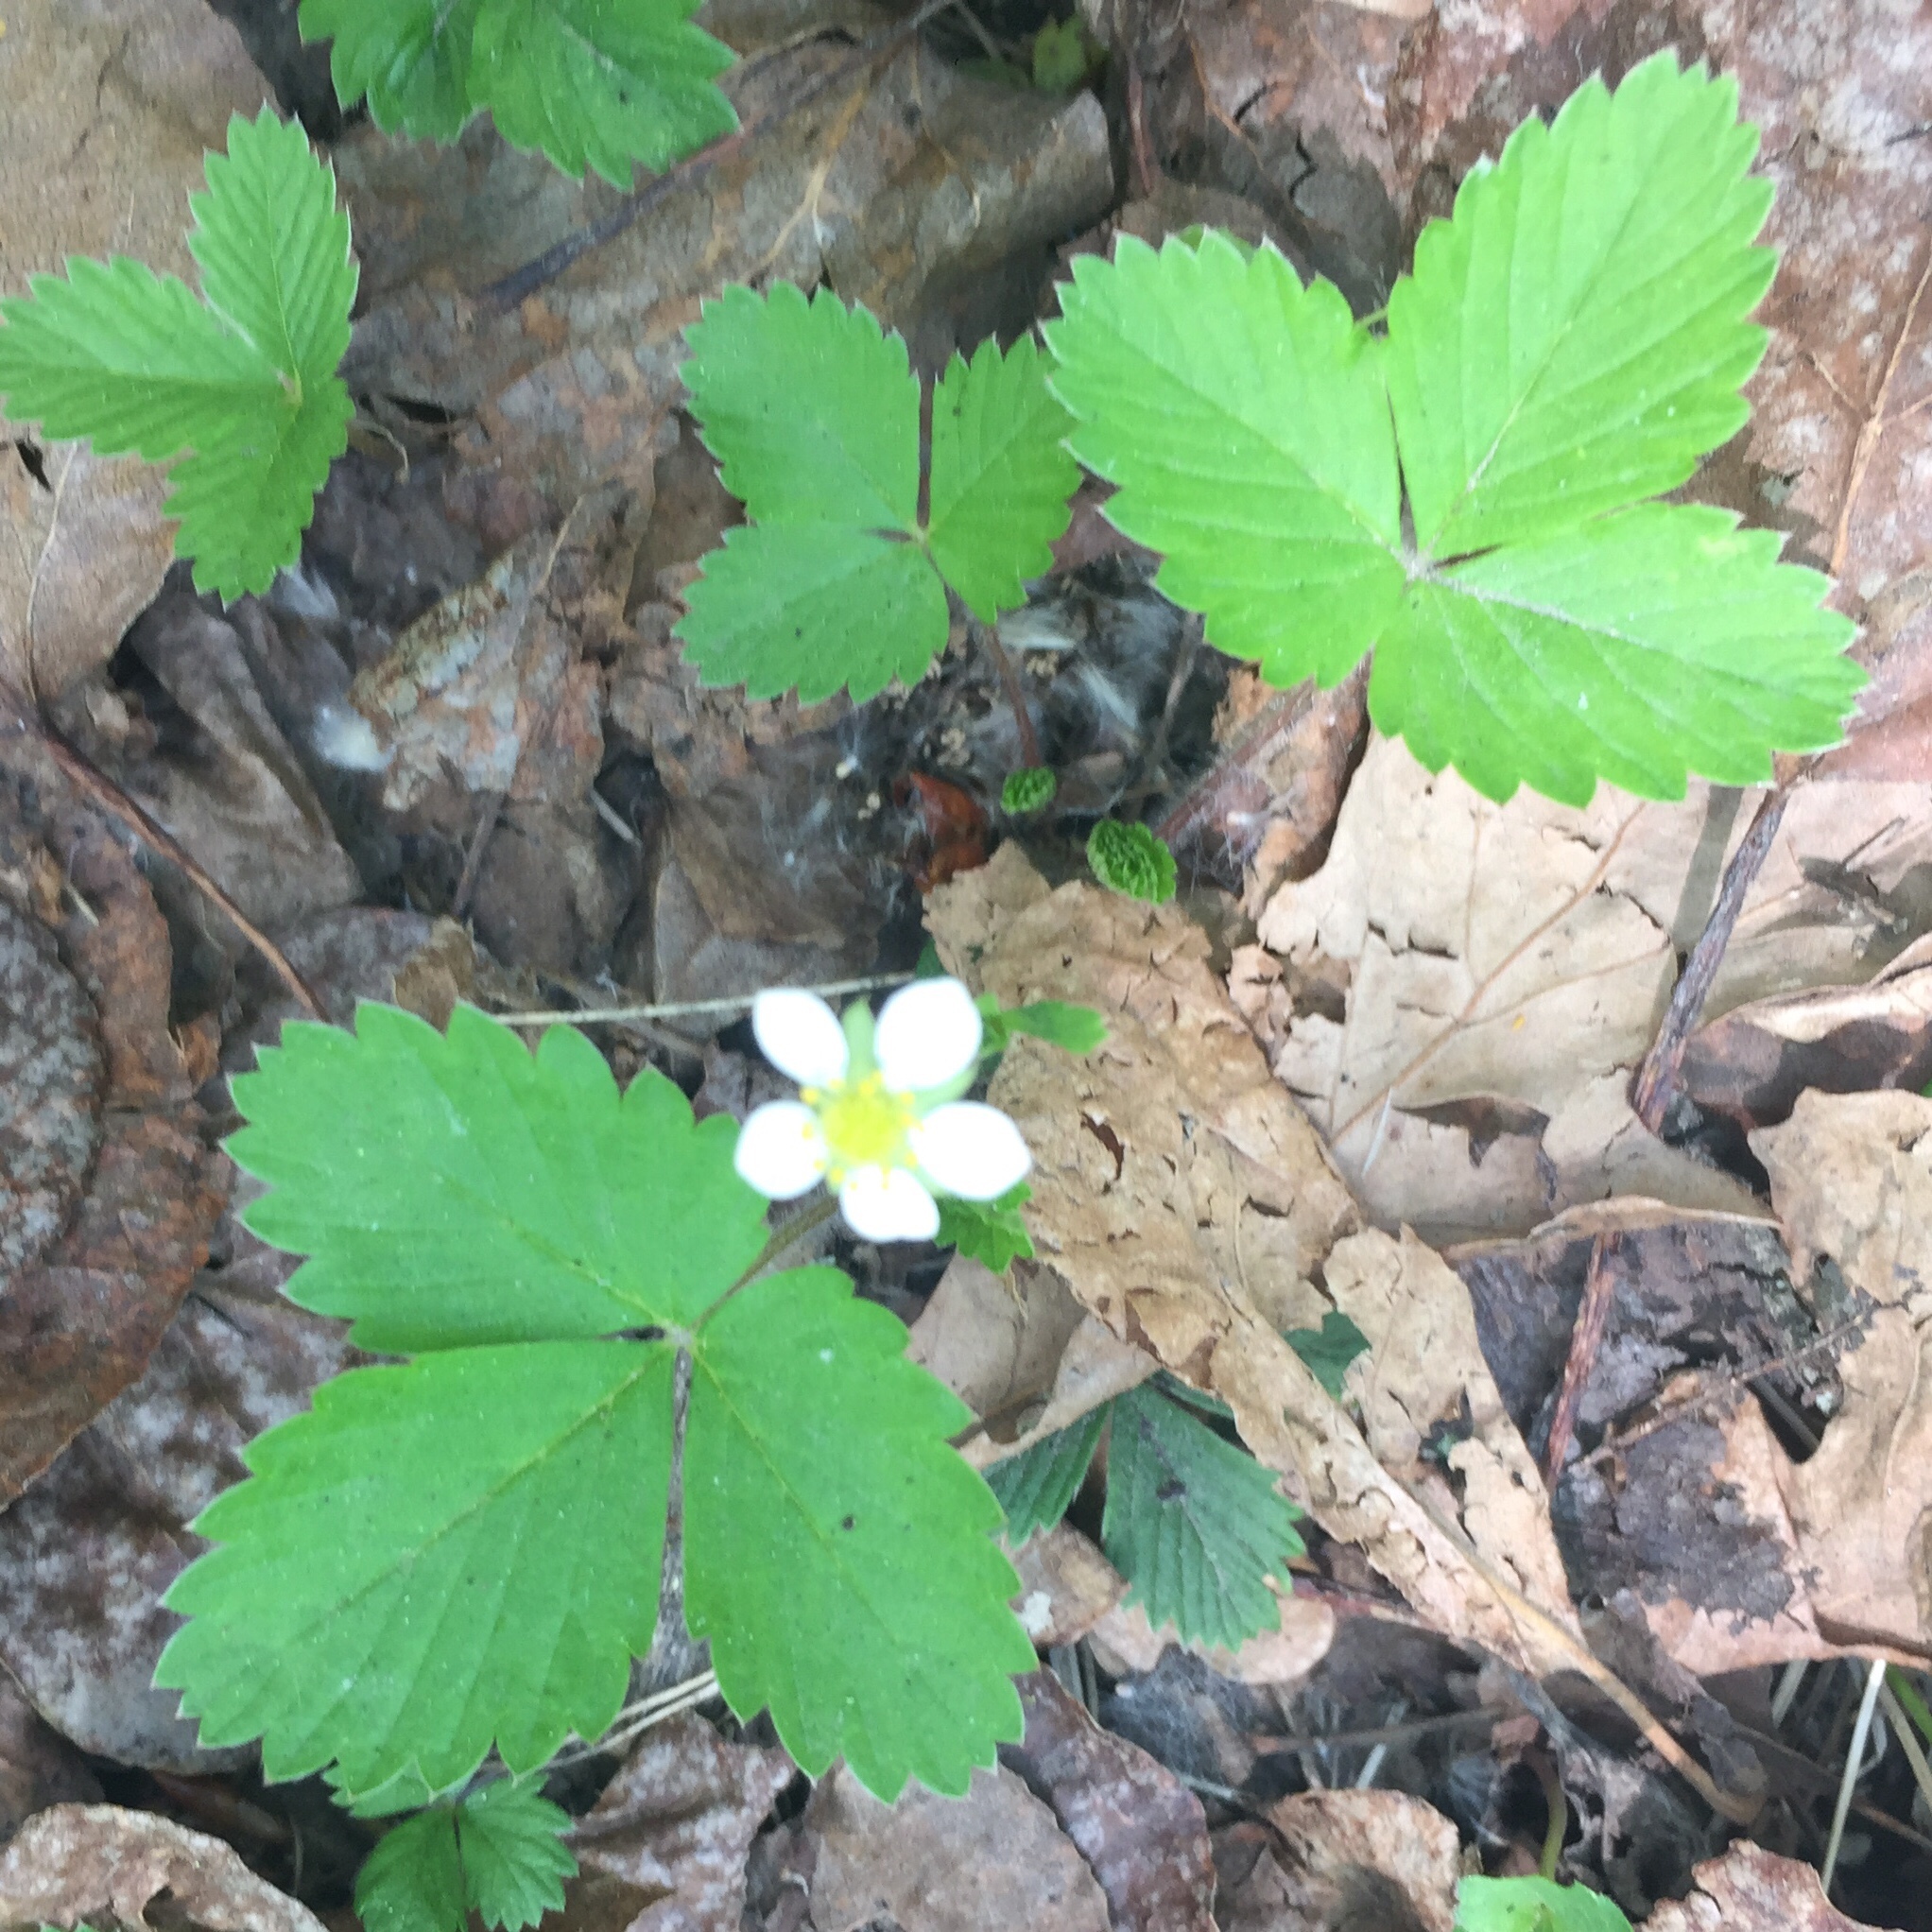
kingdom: Plantae
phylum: Tracheophyta
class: Magnoliopsida
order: Rosales
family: Rosaceae
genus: Fragaria
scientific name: Fragaria virginiana
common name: Thickleaved wild strawberry
